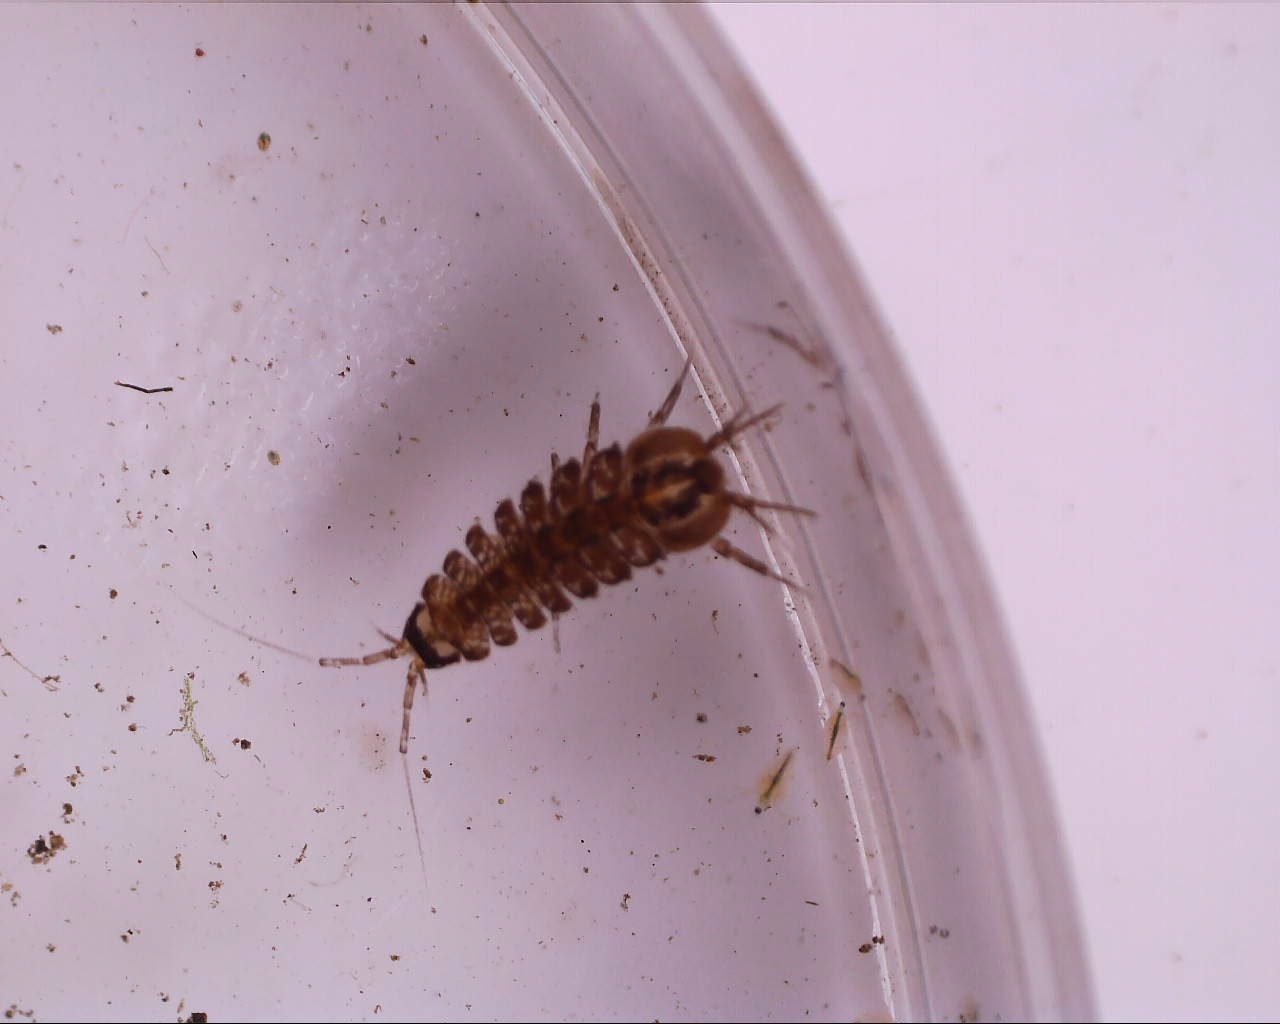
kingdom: Animalia
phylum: Arthropoda
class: Malacostraca
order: Isopoda
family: Asellidae
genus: Asellus
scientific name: Asellus aquaticus
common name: Water hog lice/slaters
